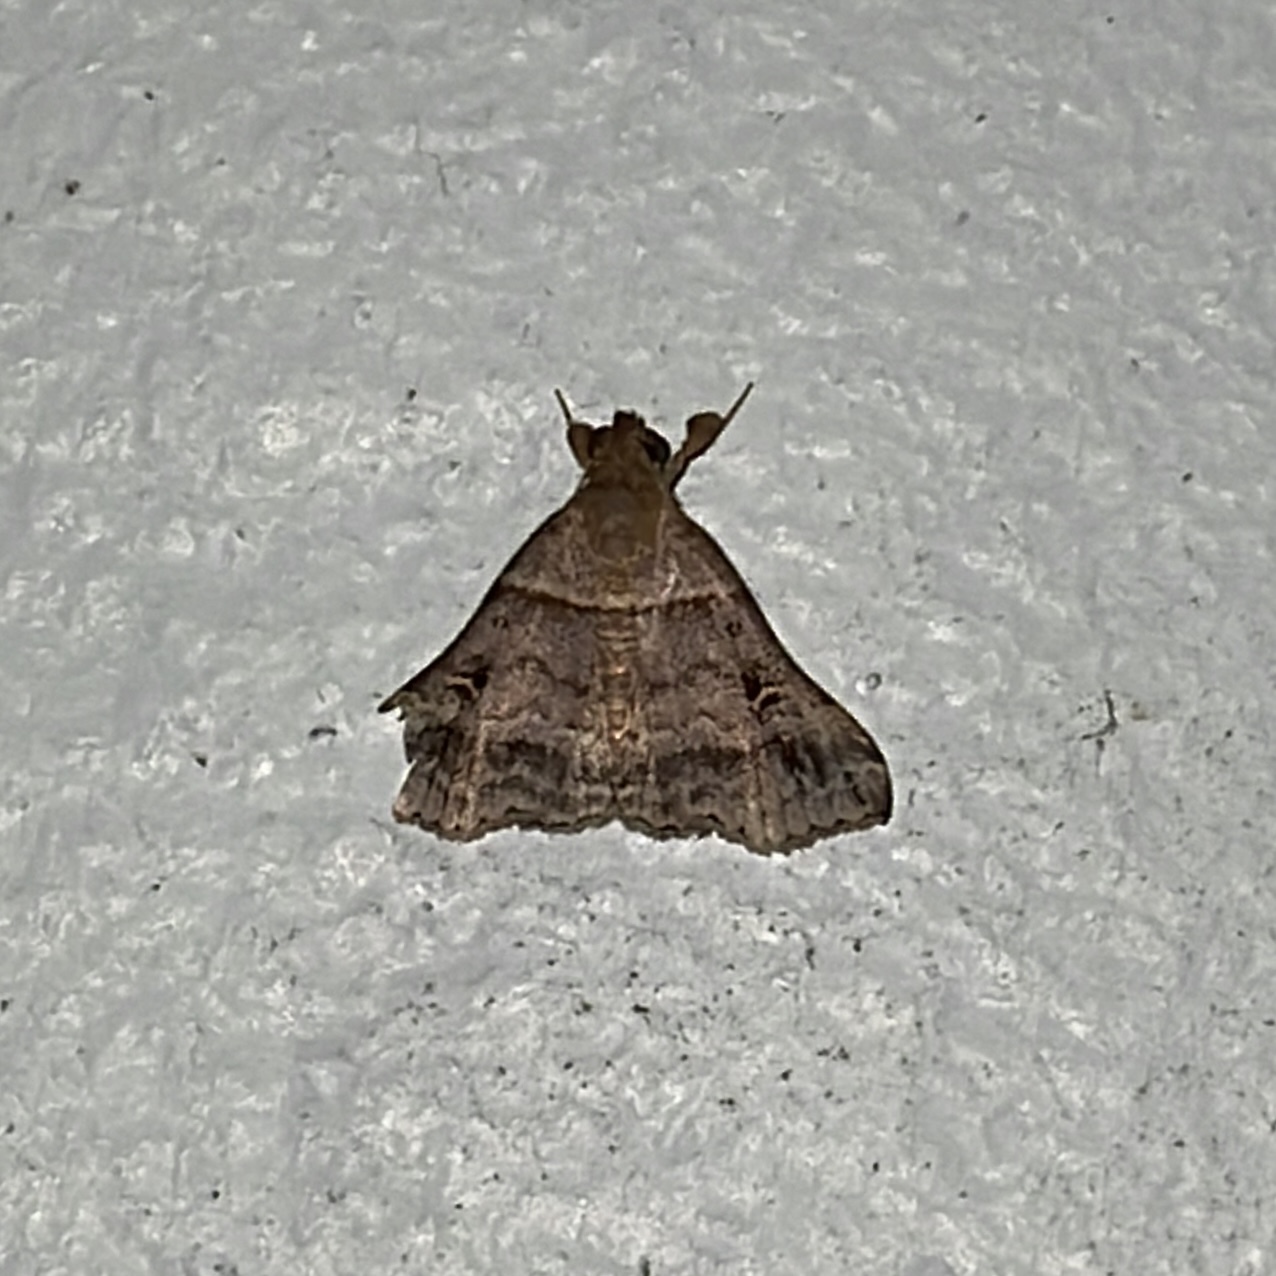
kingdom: Animalia
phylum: Arthropoda
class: Insecta
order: Lepidoptera
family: Erebidae
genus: Heterogramma
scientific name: Heterogramma circumflexalis
